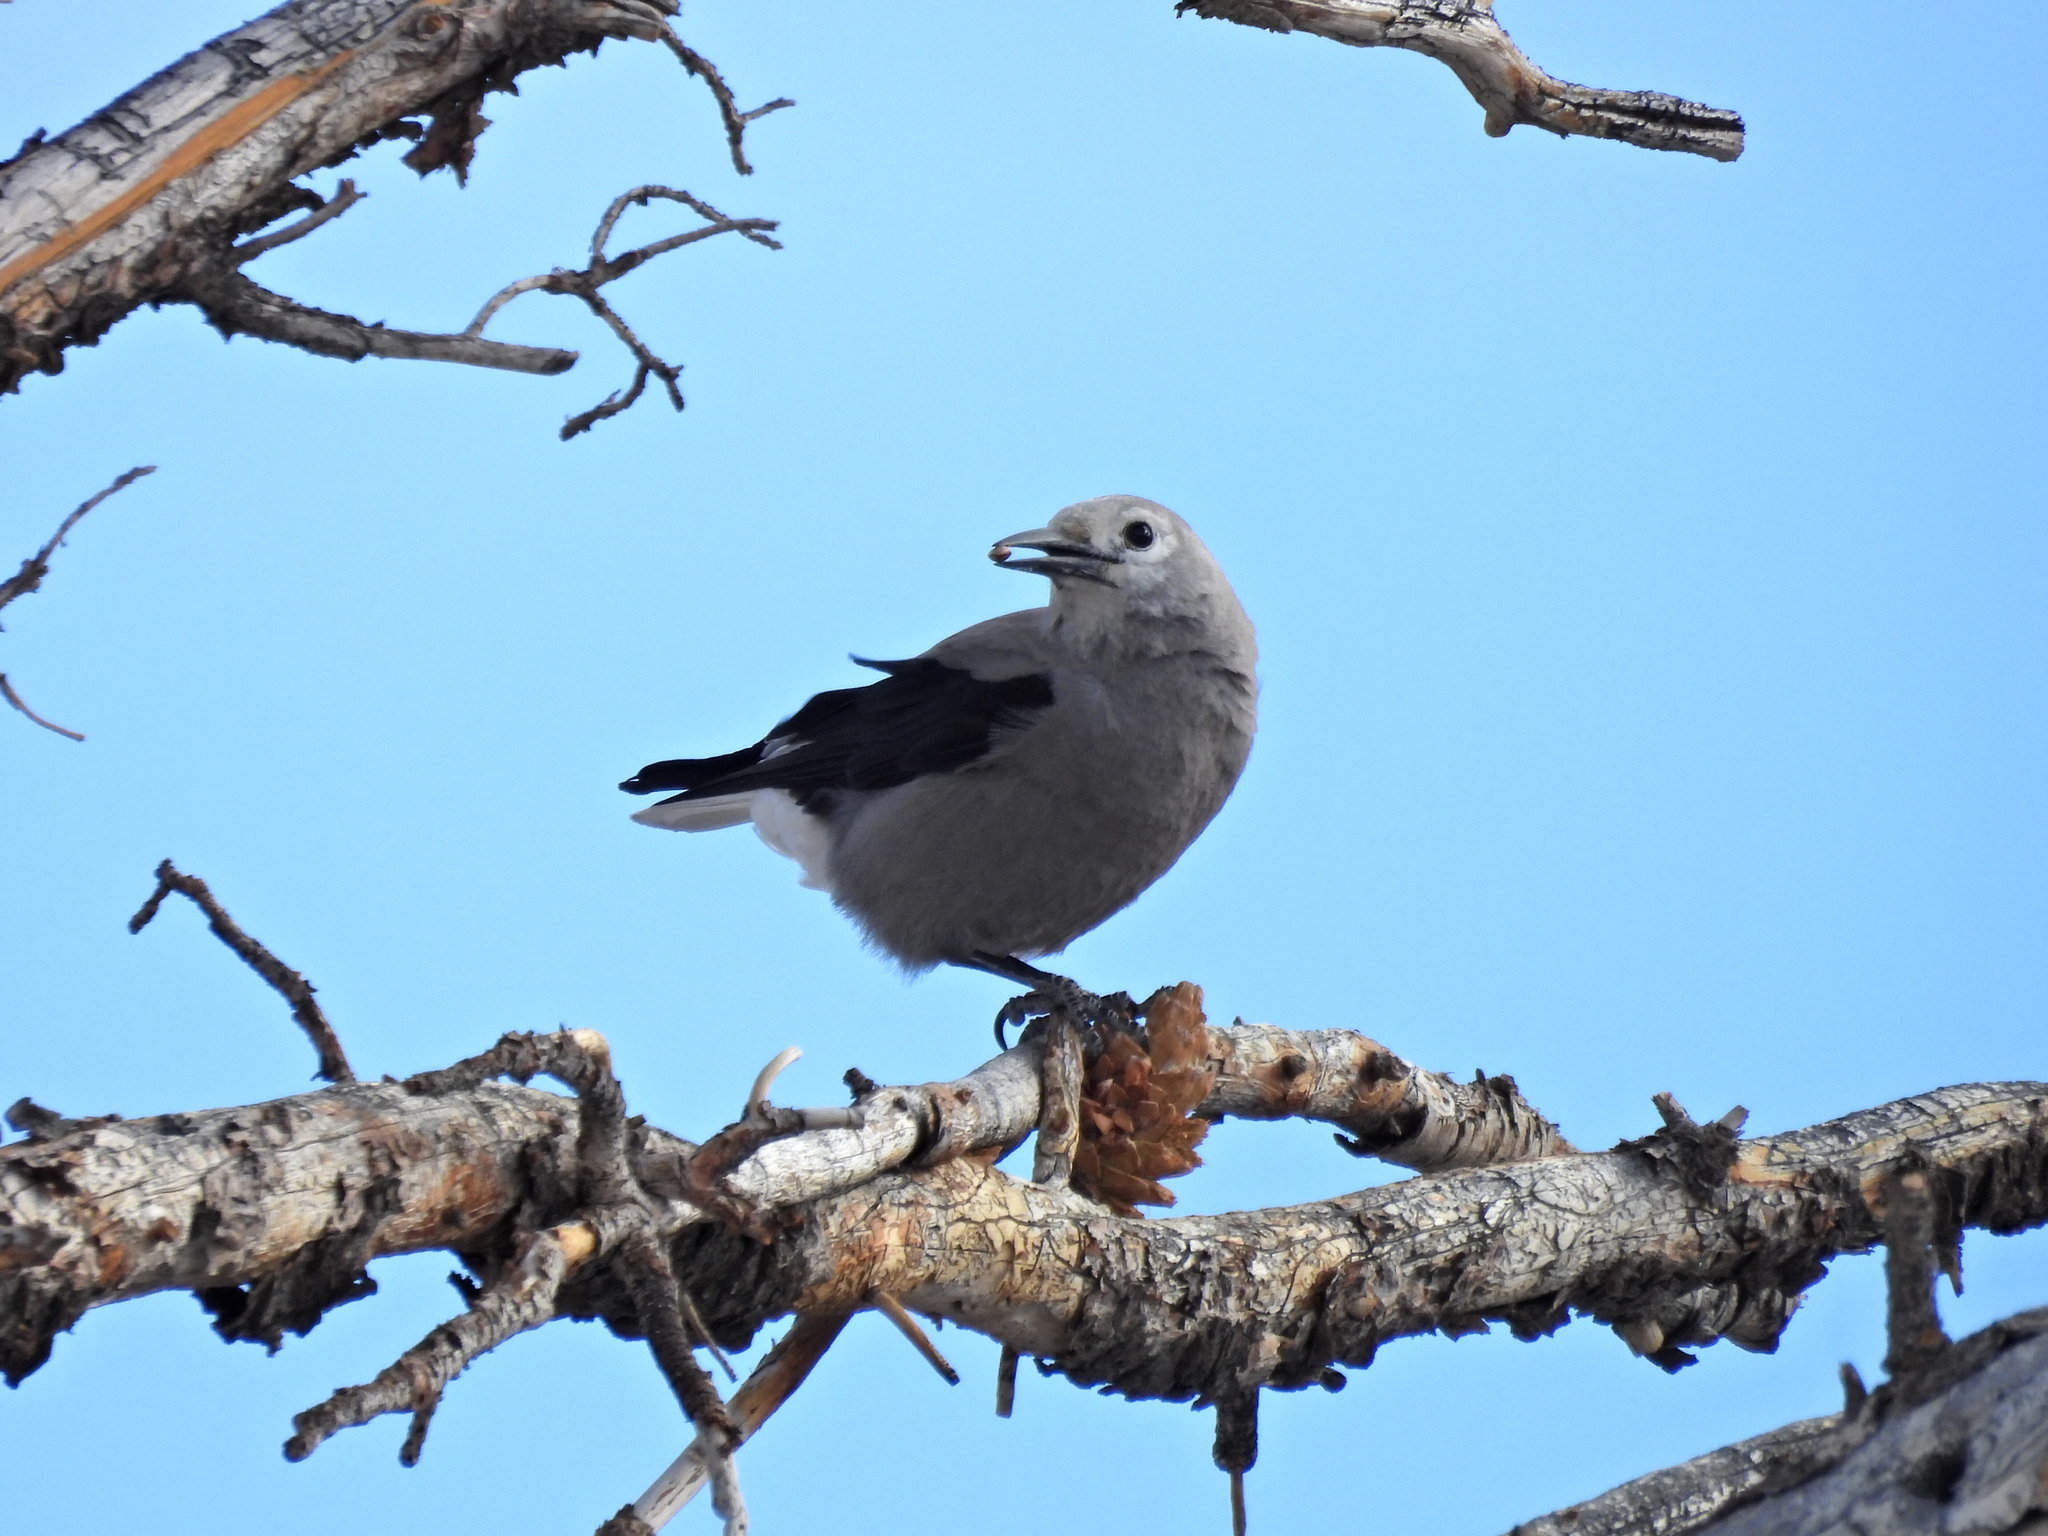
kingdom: Animalia
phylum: Chordata
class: Aves
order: Passeriformes
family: Corvidae
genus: Nucifraga
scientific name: Nucifraga columbiana
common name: Clark's nutcracker
